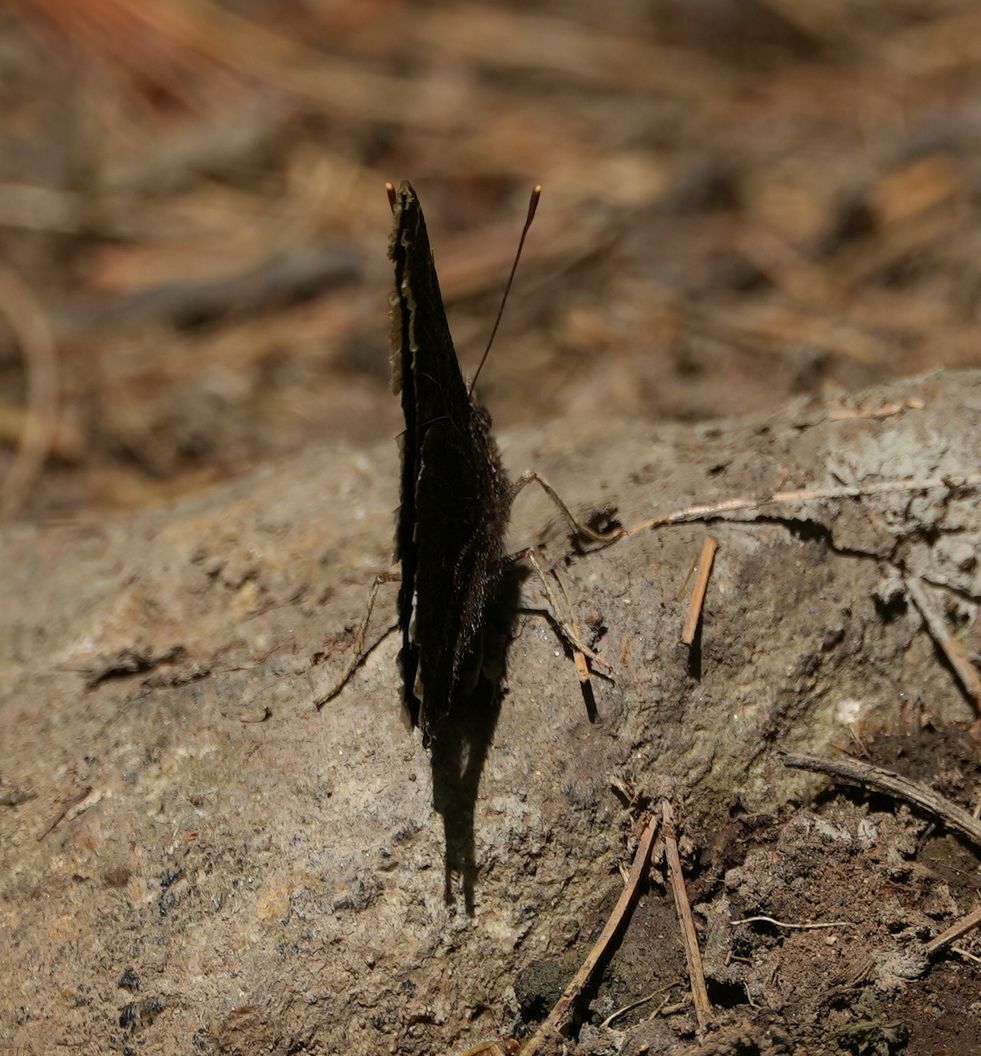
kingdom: Animalia
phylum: Arthropoda
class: Insecta
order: Lepidoptera
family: Nymphalidae
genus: Nymphalis
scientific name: Nymphalis antiopa
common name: Camberwell beauty
